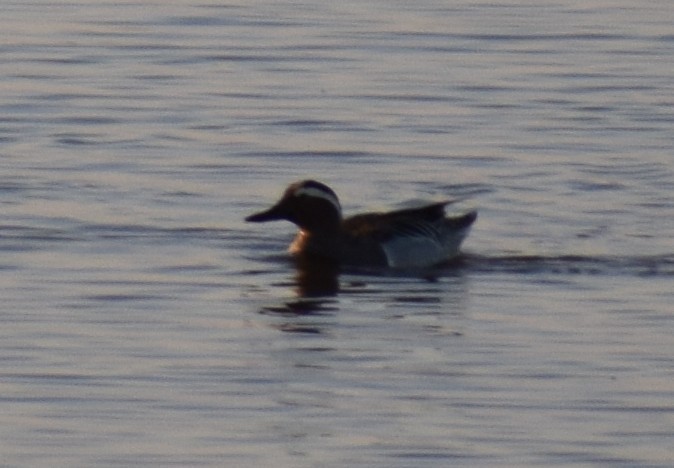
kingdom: Animalia
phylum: Chordata
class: Aves
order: Anseriformes
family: Anatidae
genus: Spatula
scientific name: Spatula querquedula
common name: Garganey
